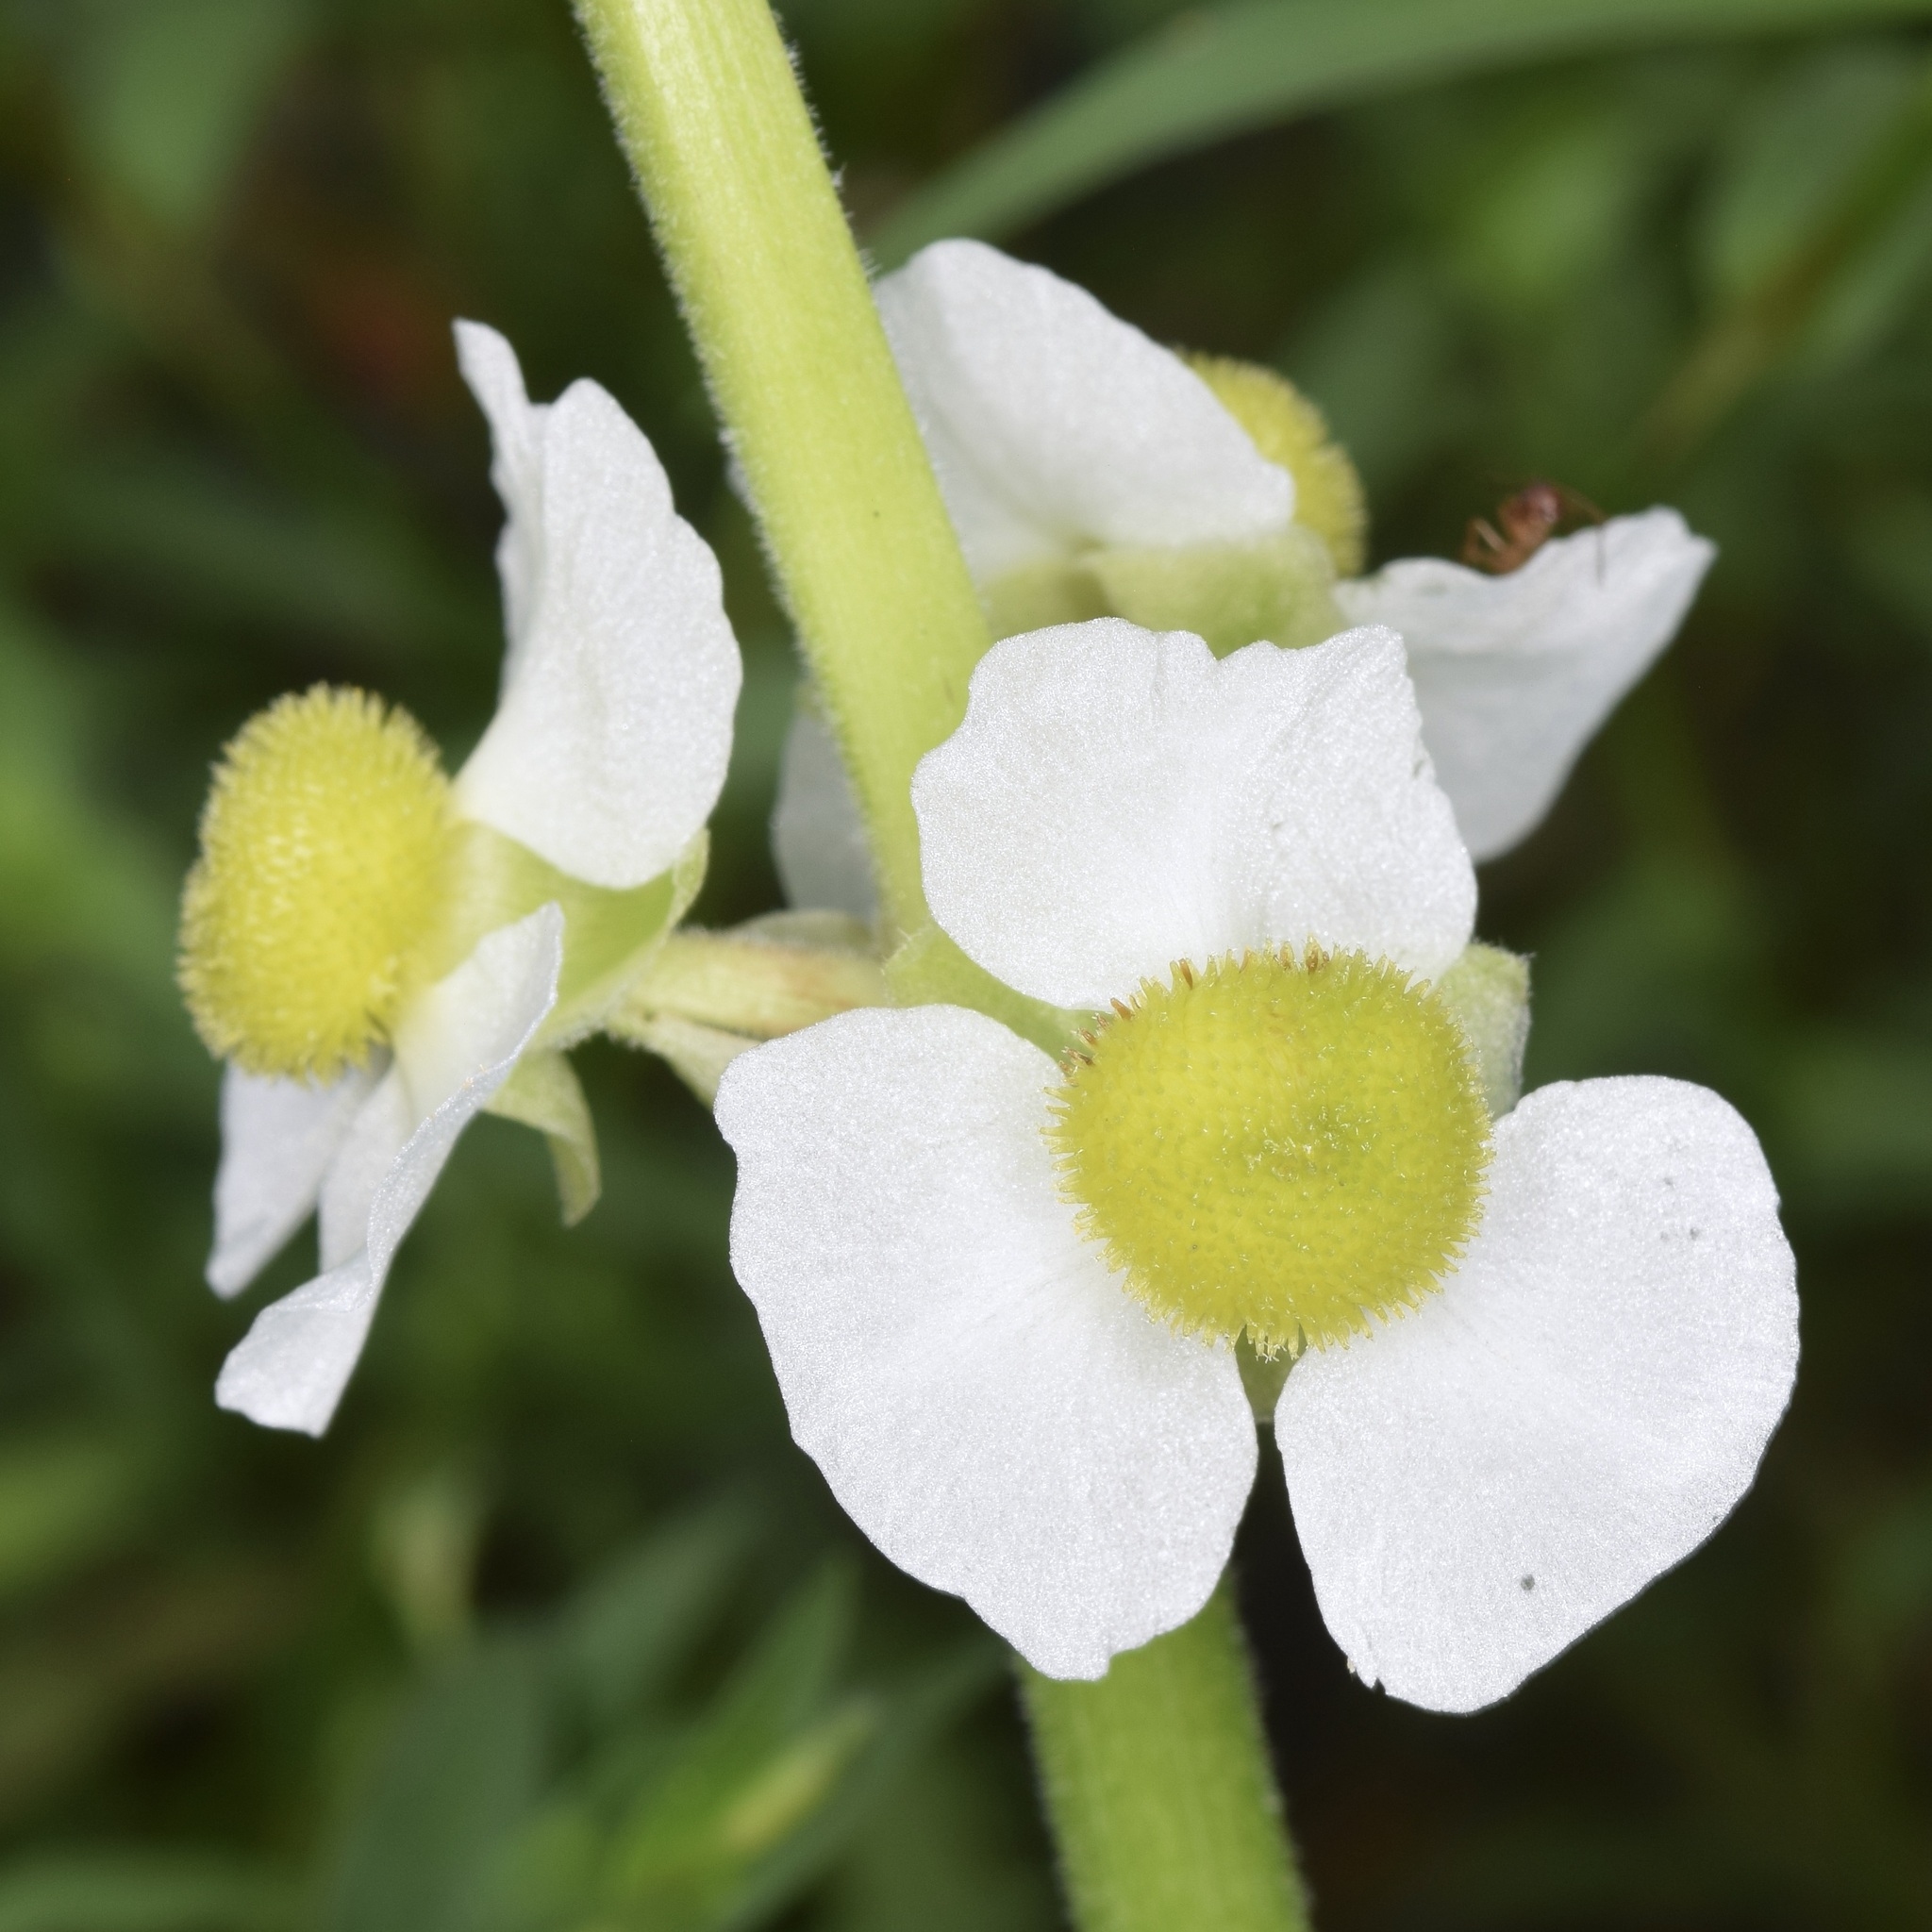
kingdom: Plantae
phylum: Tracheophyta
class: Liliopsida
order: Alismatales
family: Alismataceae
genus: Sagittaria
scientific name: Sagittaria latifolia
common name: Duck-potato
